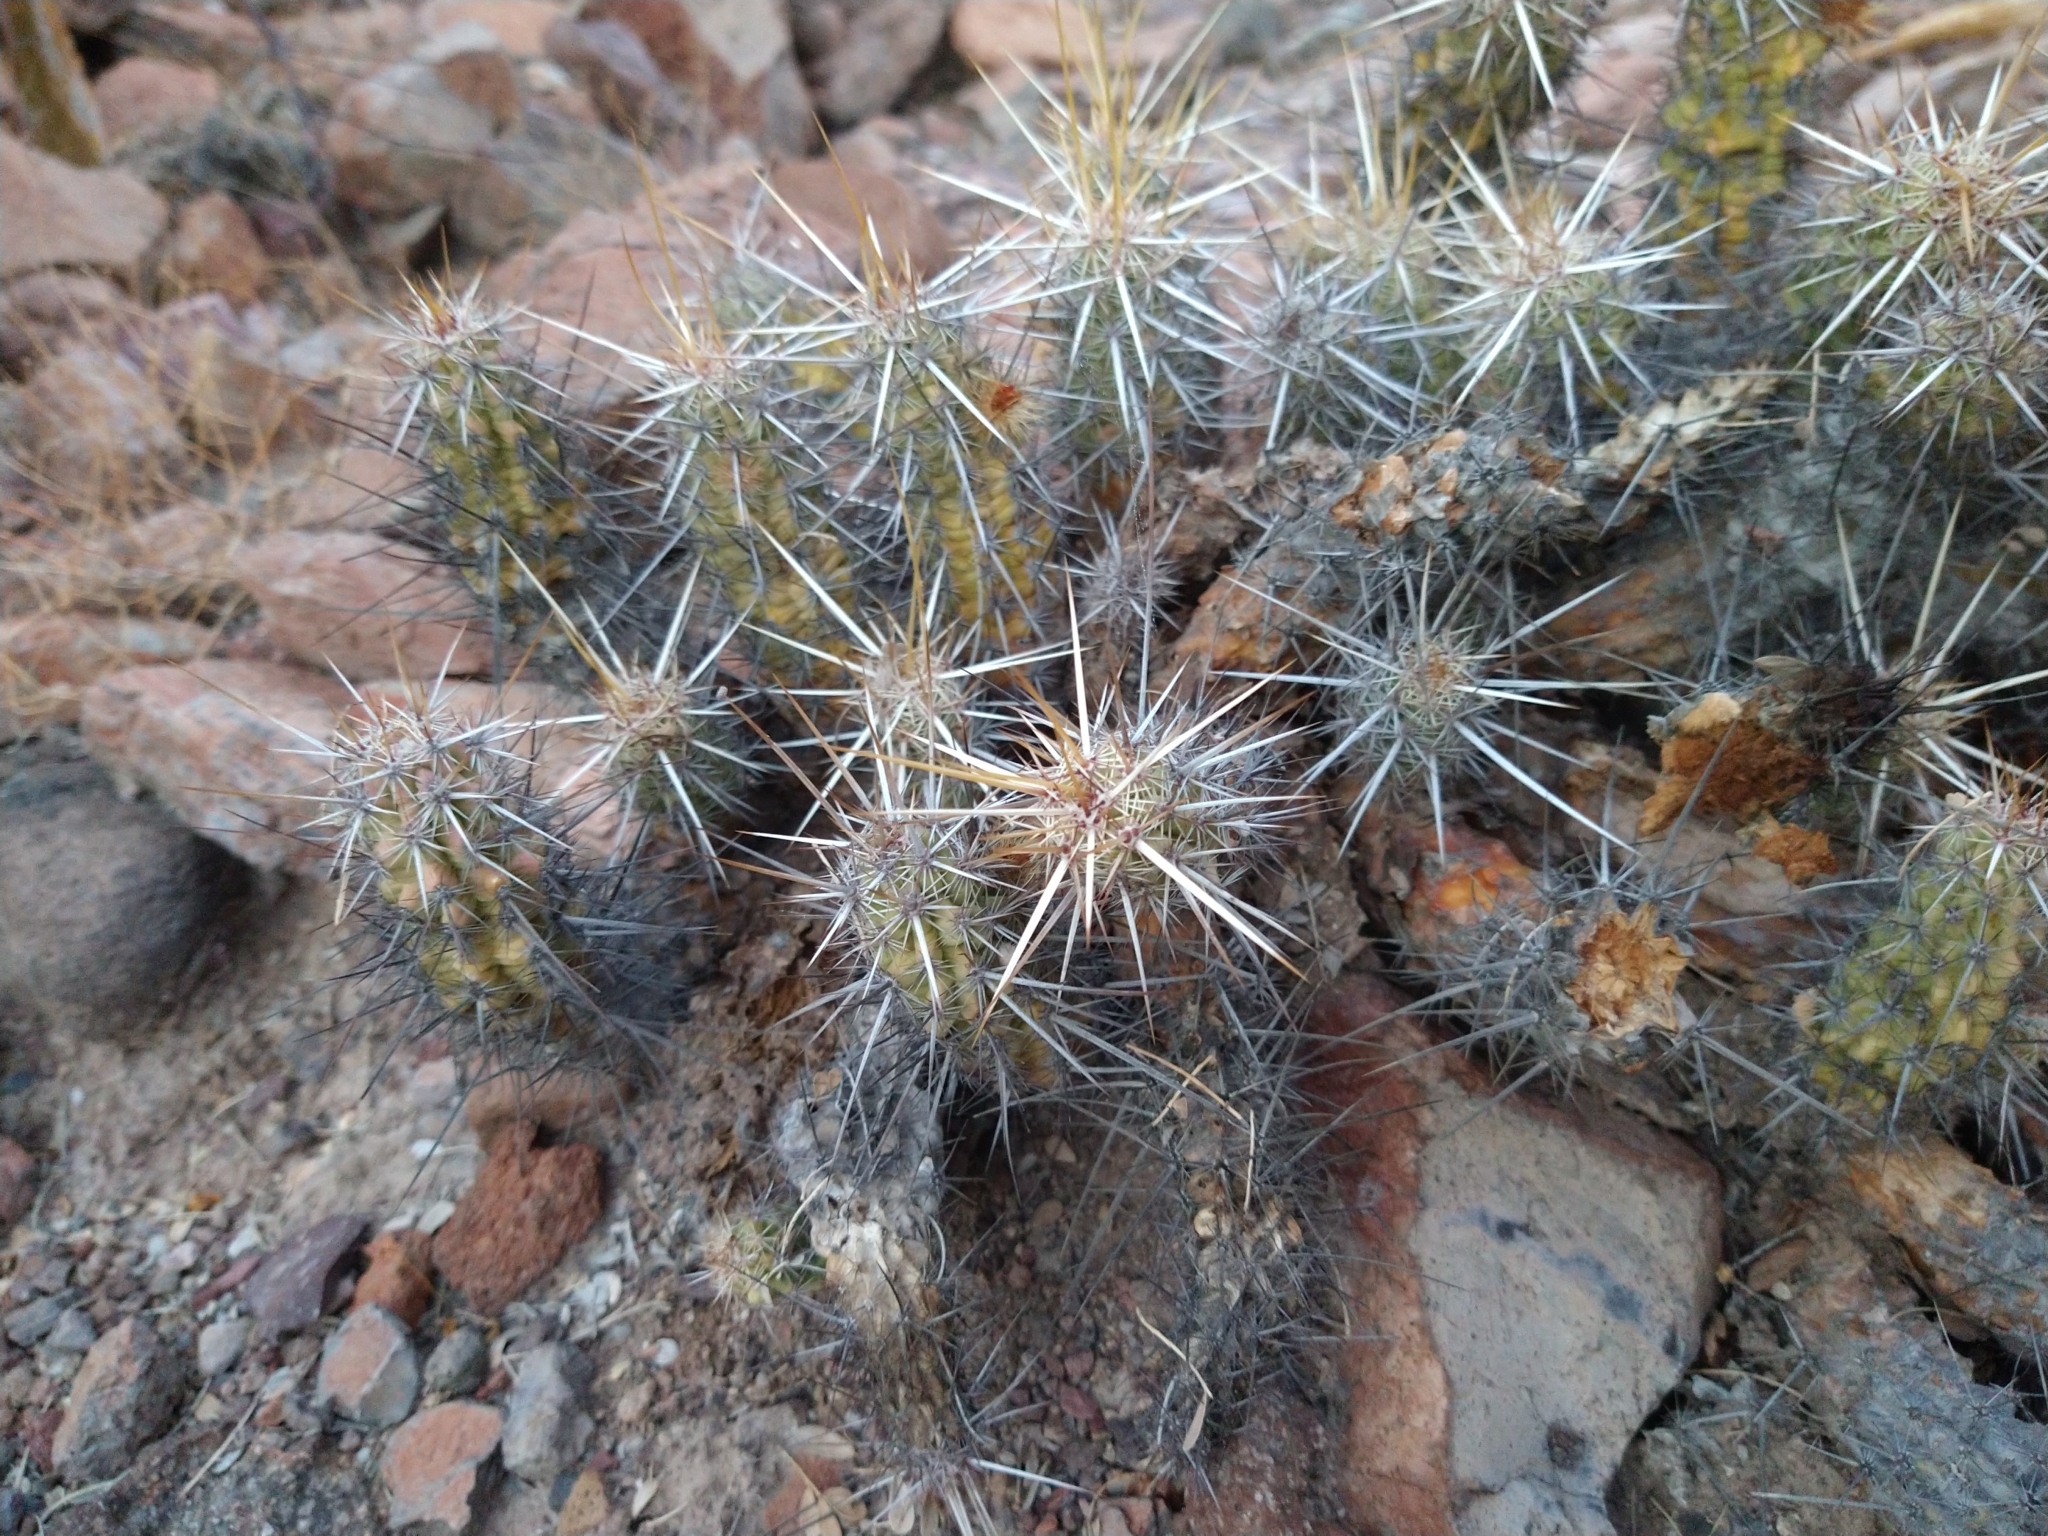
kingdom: Plantae
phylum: Tracheophyta
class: Magnoliopsida
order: Caryophyllales
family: Cactaceae
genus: Echinocereus
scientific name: Echinocereus brandegeei
